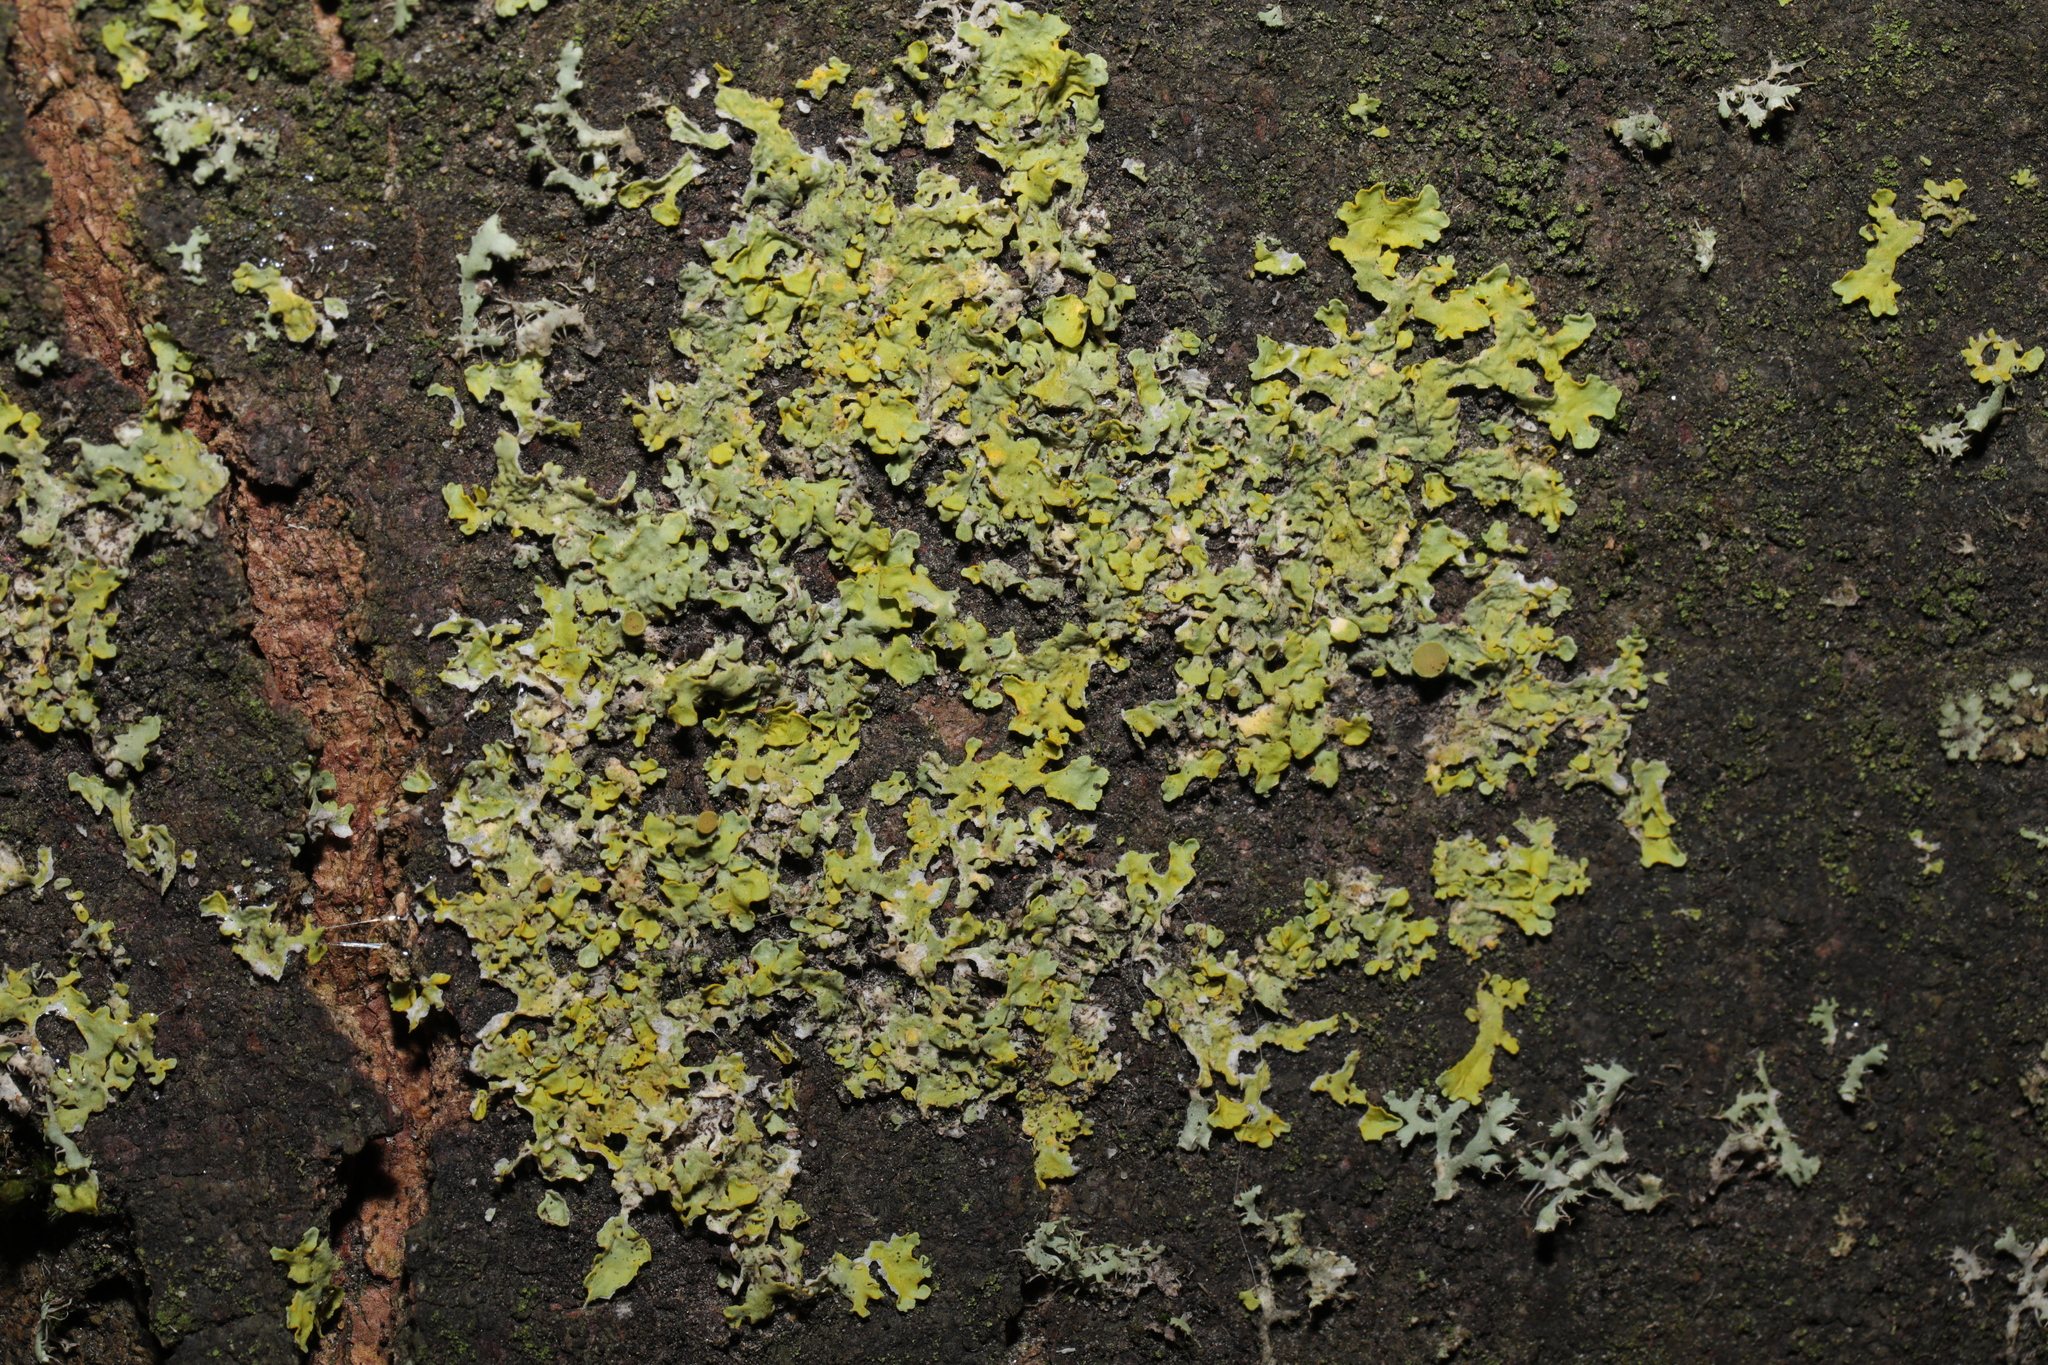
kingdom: Fungi
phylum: Ascomycota
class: Lecanoromycetes
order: Teloschistales
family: Teloschistaceae
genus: Xanthoria
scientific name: Xanthoria parietina
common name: Common orange lichen
